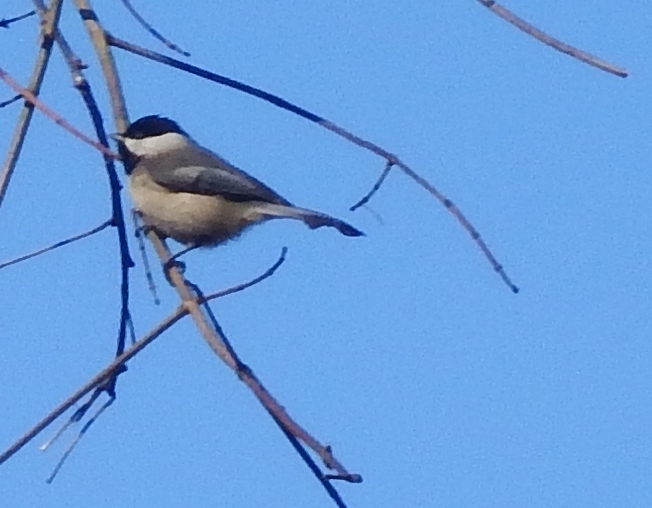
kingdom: Animalia
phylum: Chordata
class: Aves
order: Passeriformes
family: Paridae
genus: Poecile
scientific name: Poecile carolinensis
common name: Carolina chickadee
